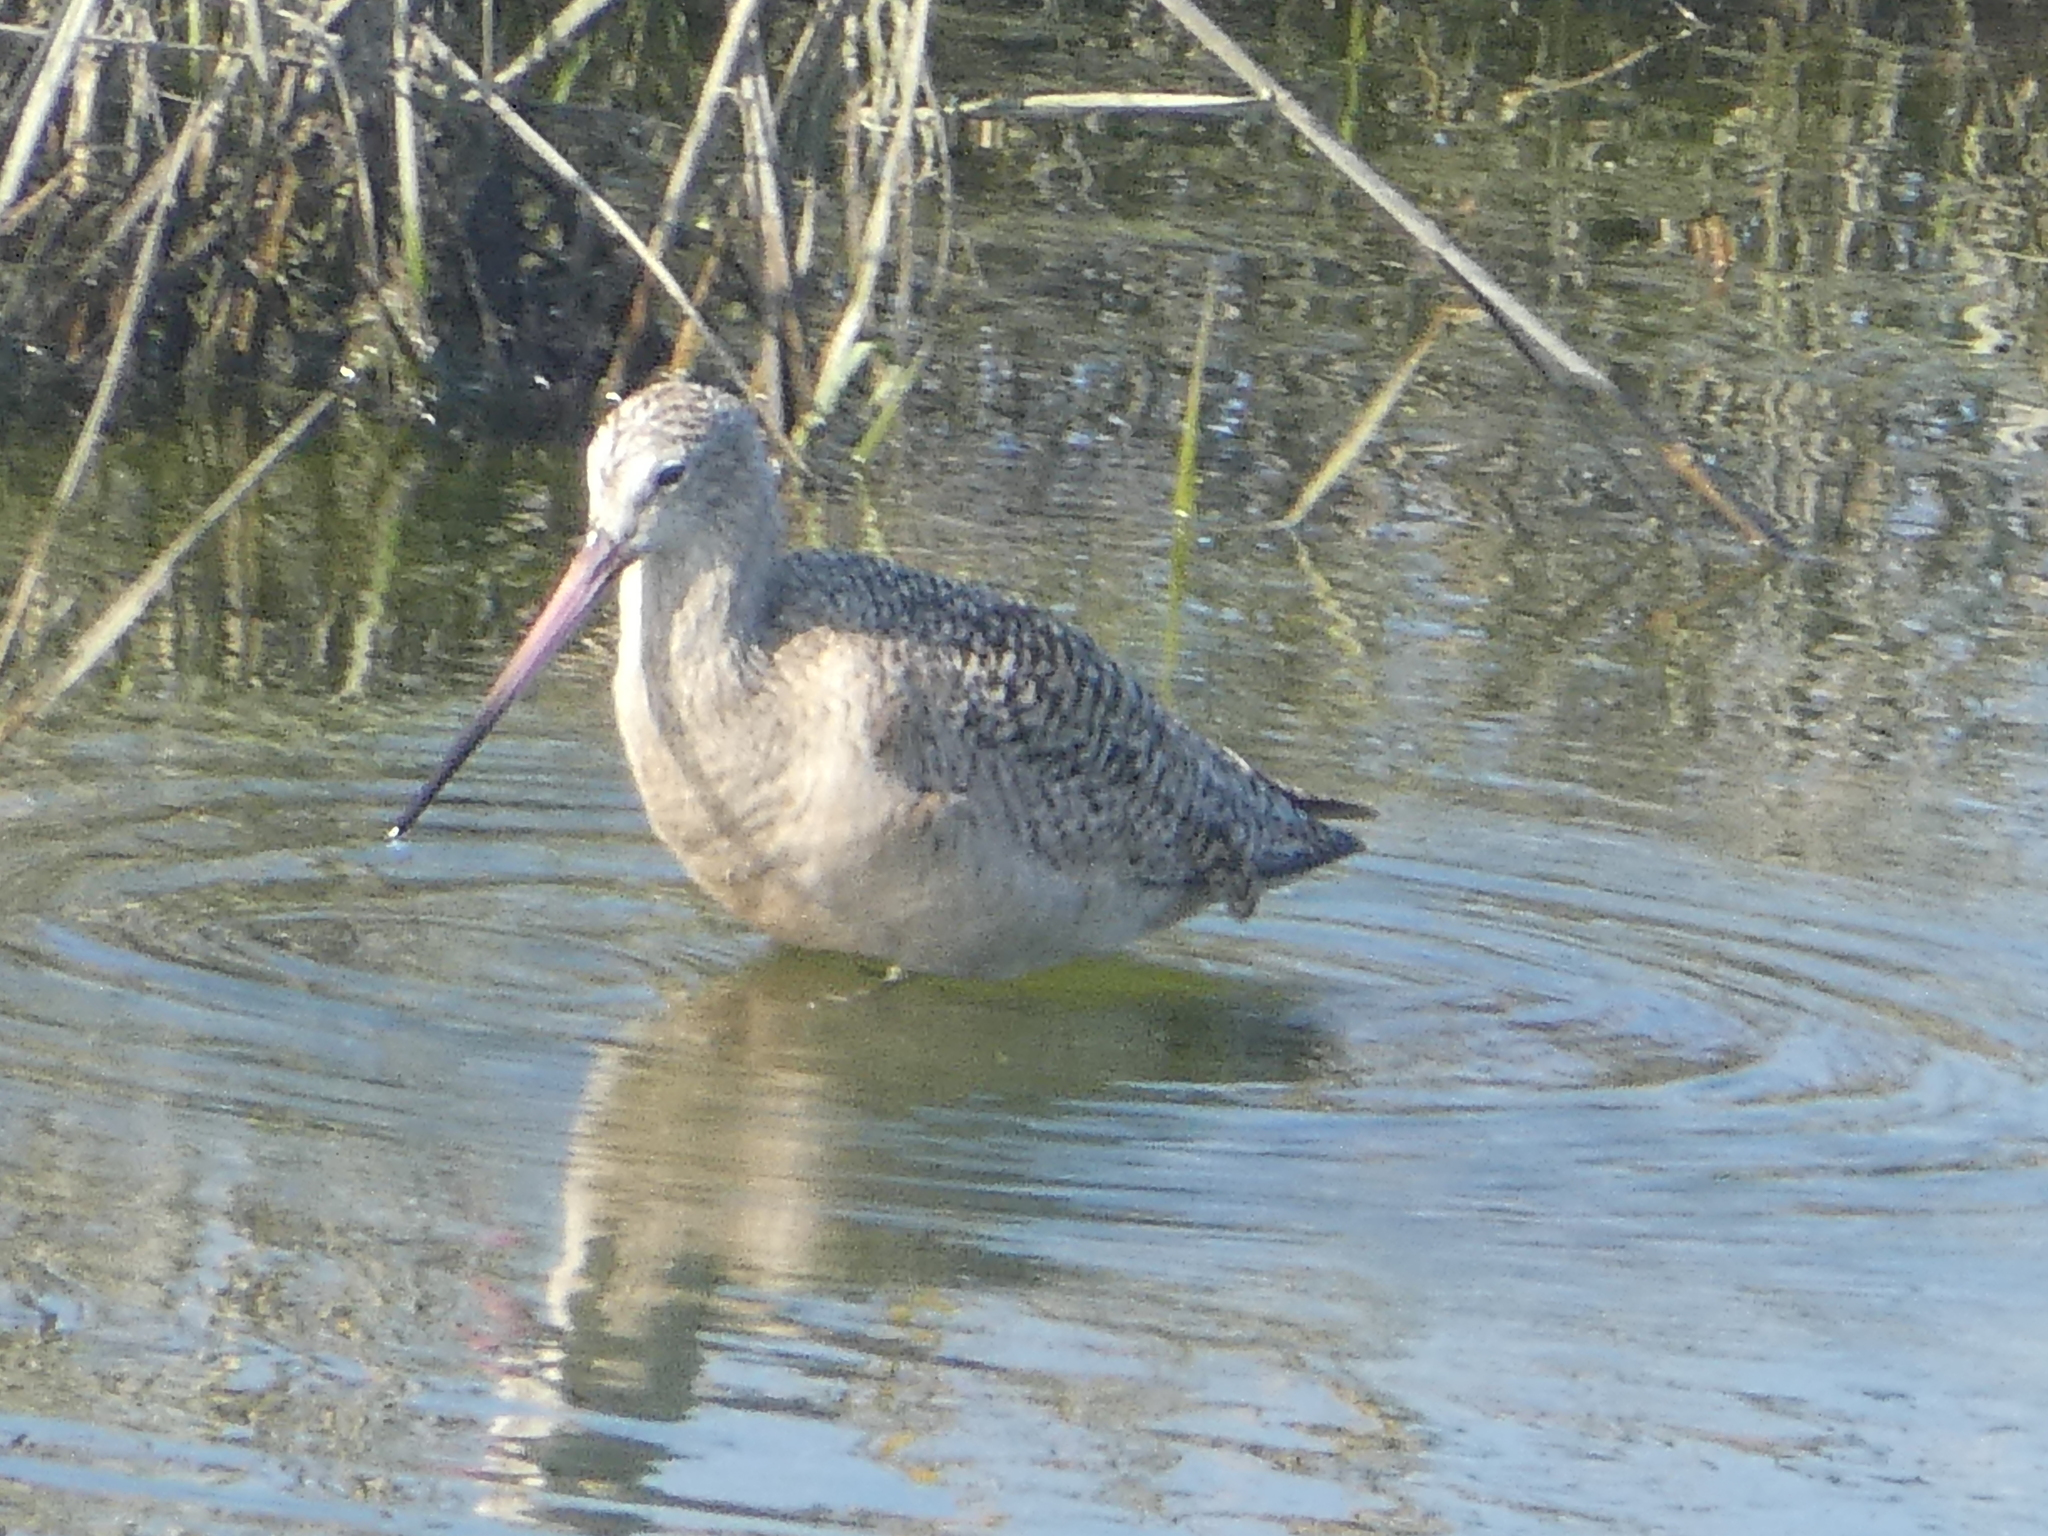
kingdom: Animalia
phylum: Chordata
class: Aves
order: Charadriiformes
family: Scolopacidae
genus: Limosa
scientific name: Limosa fedoa
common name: Marbled godwit
